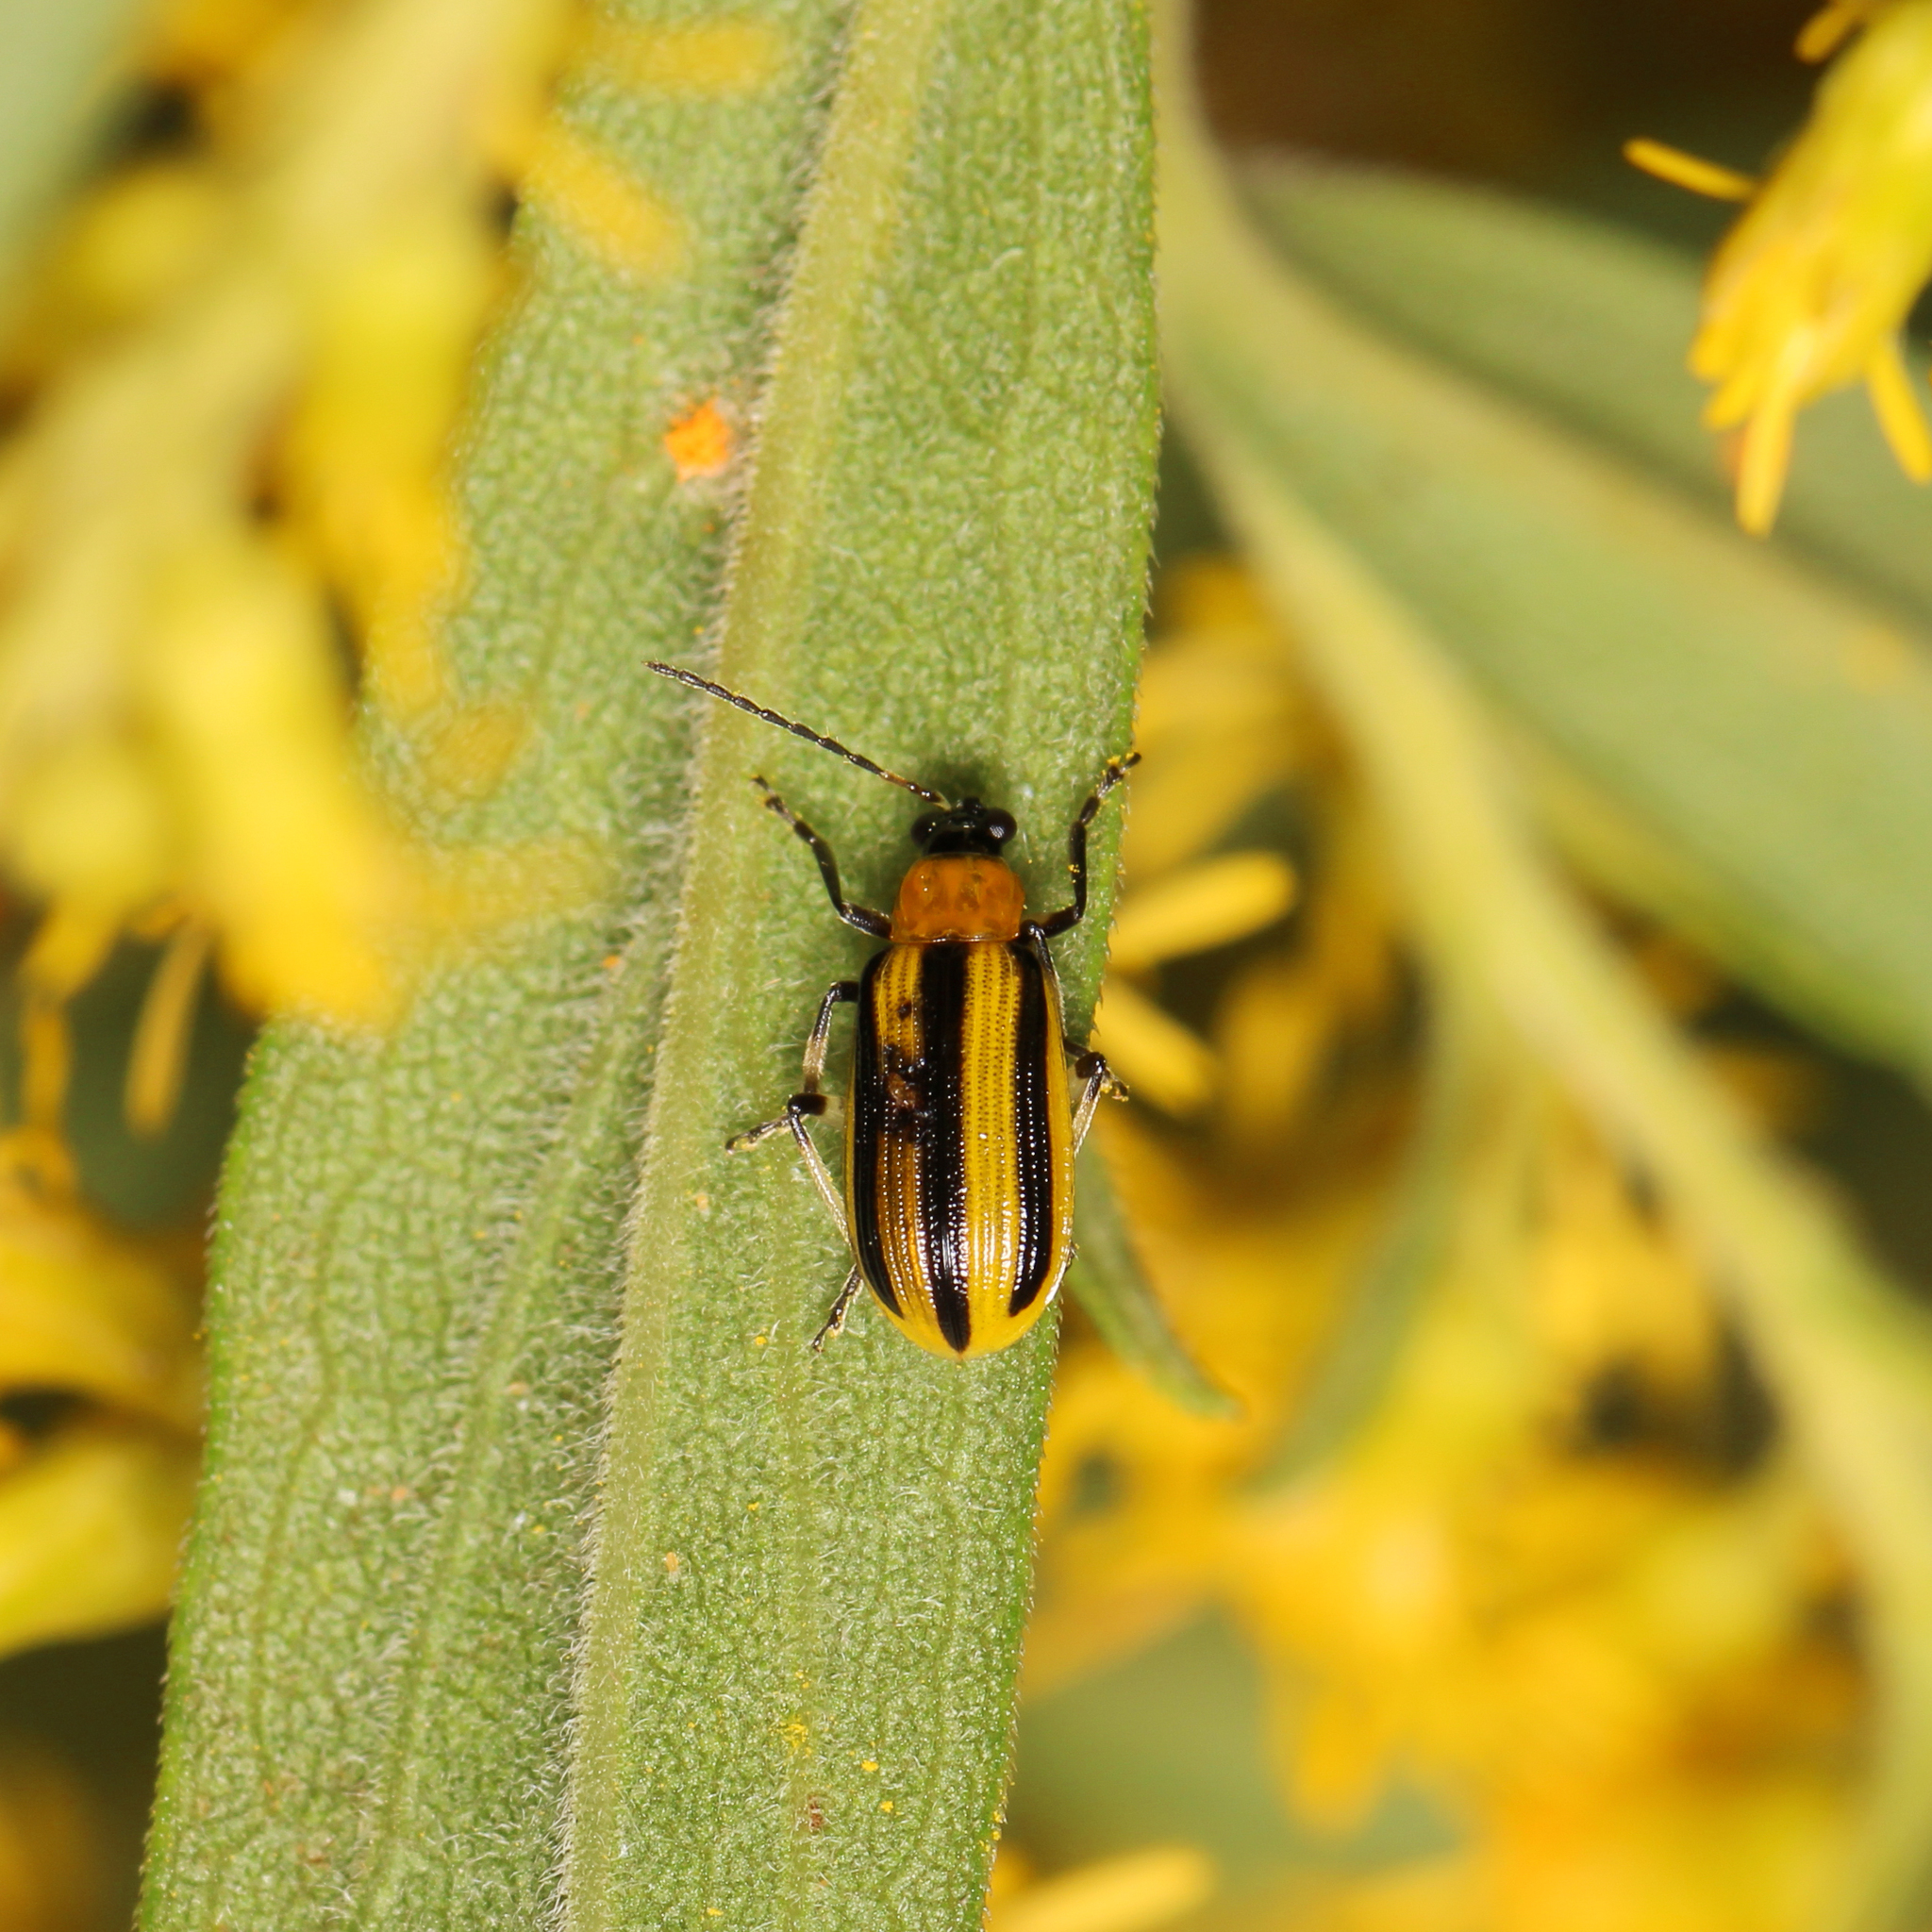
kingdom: Animalia
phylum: Arthropoda
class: Insecta
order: Coleoptera
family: Chrysomelidae
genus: Acalymma
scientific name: Acalymma vittatum
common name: Striped cucumber beetle
